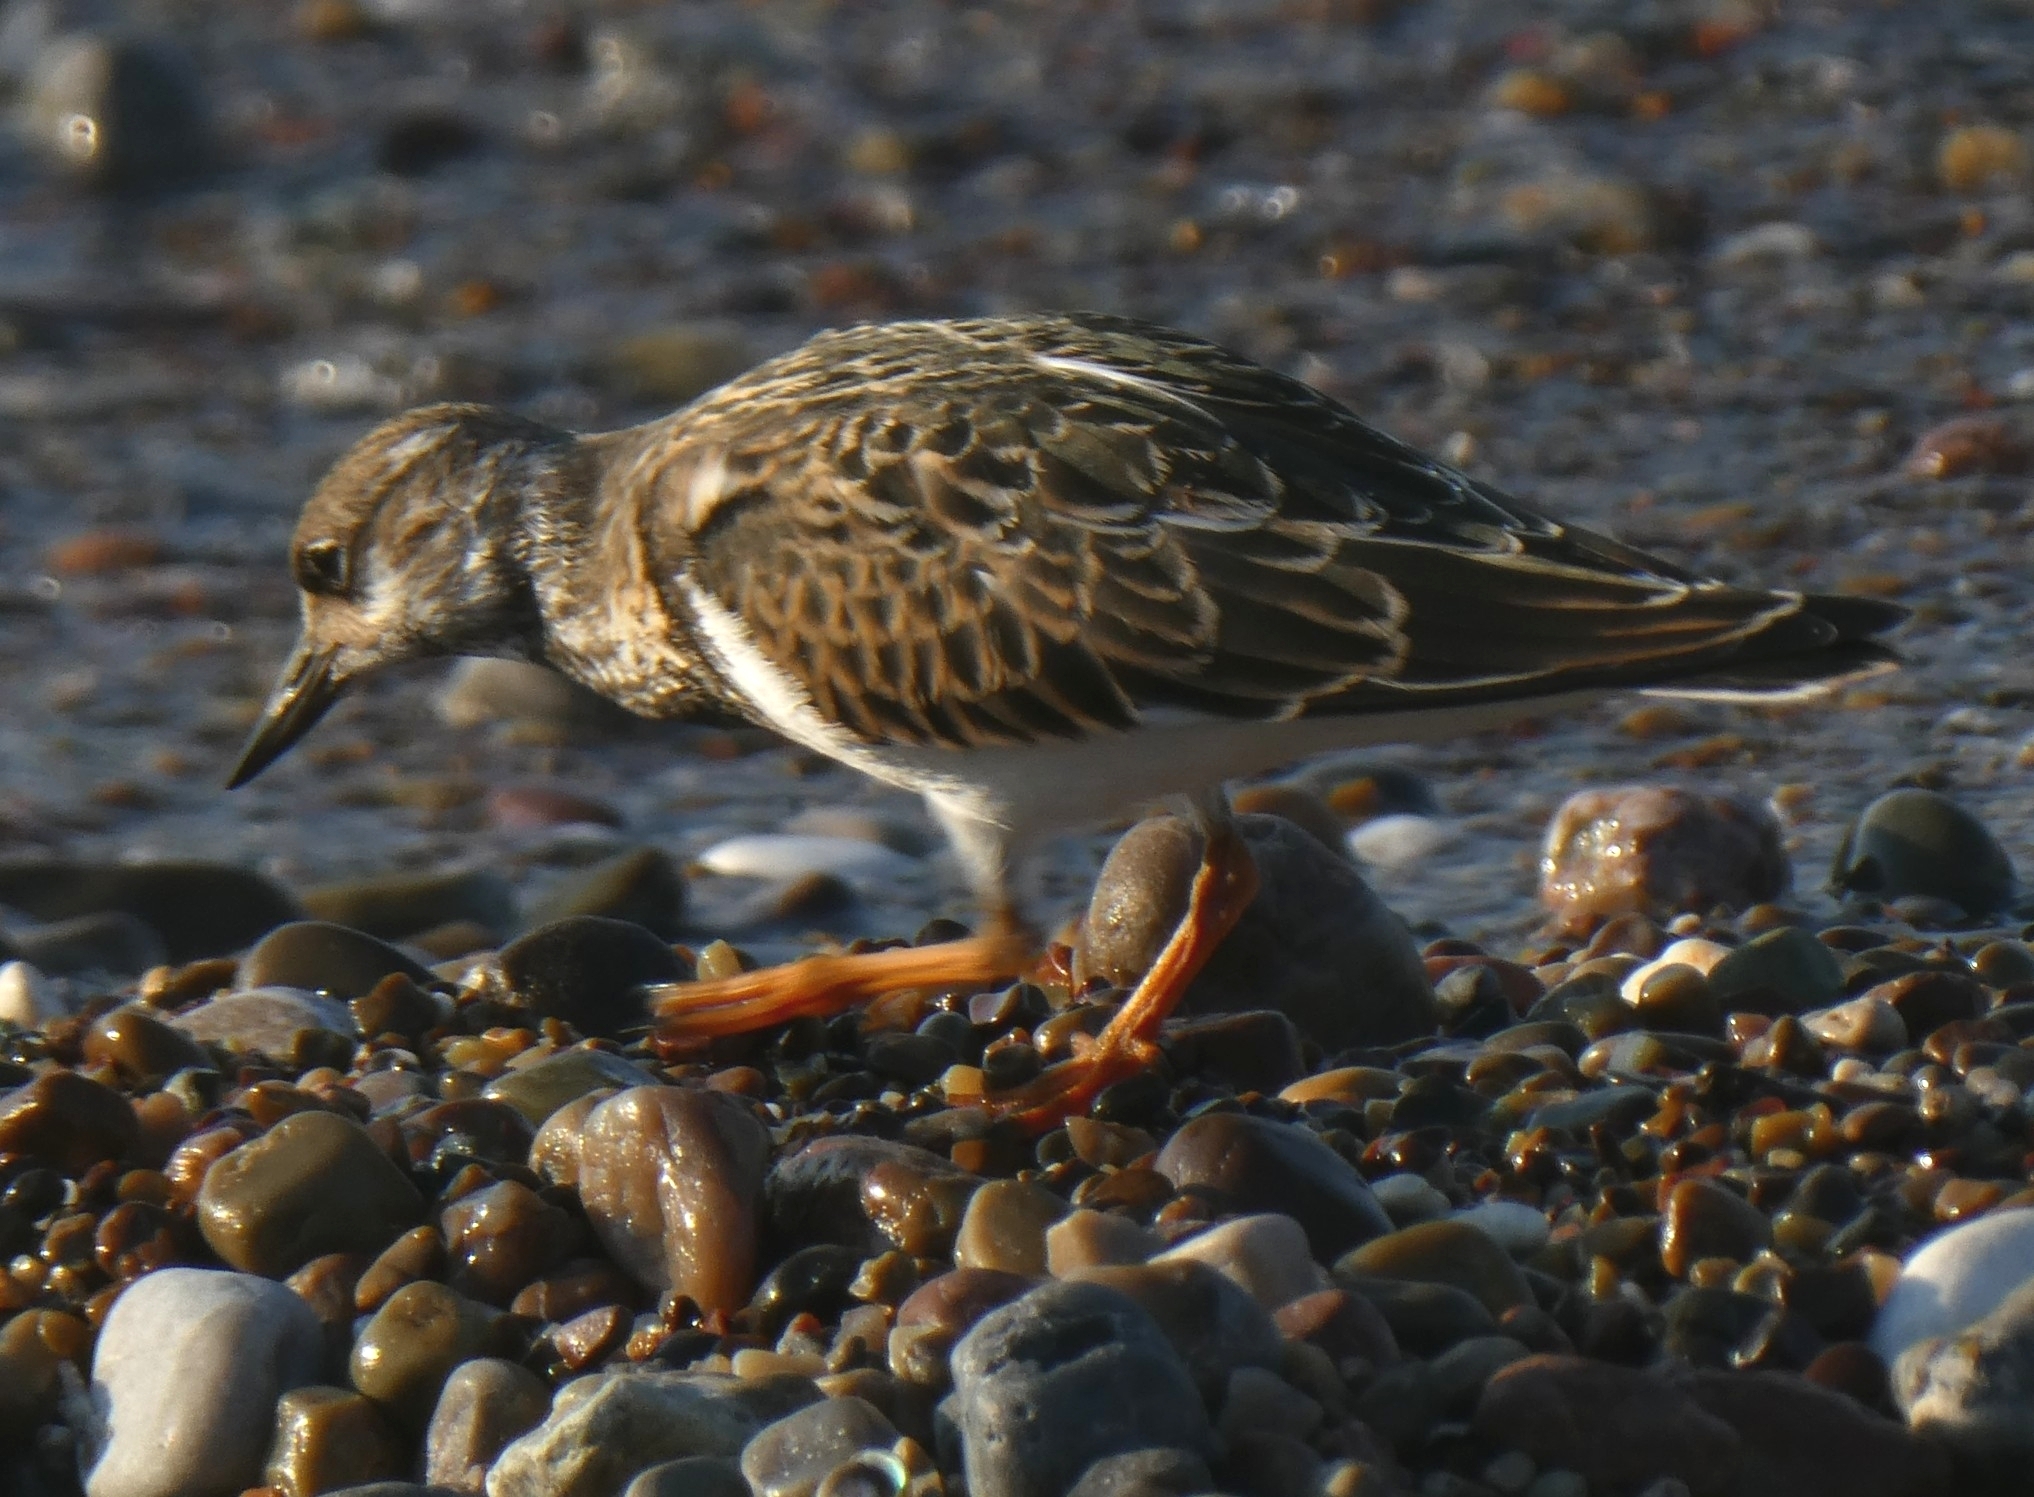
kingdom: Animalia
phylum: Chordata
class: Aves
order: Charadriiformes
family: Scolopacidae
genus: Arenaria
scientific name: Arenaria interpres
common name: Ruddy turnstone
